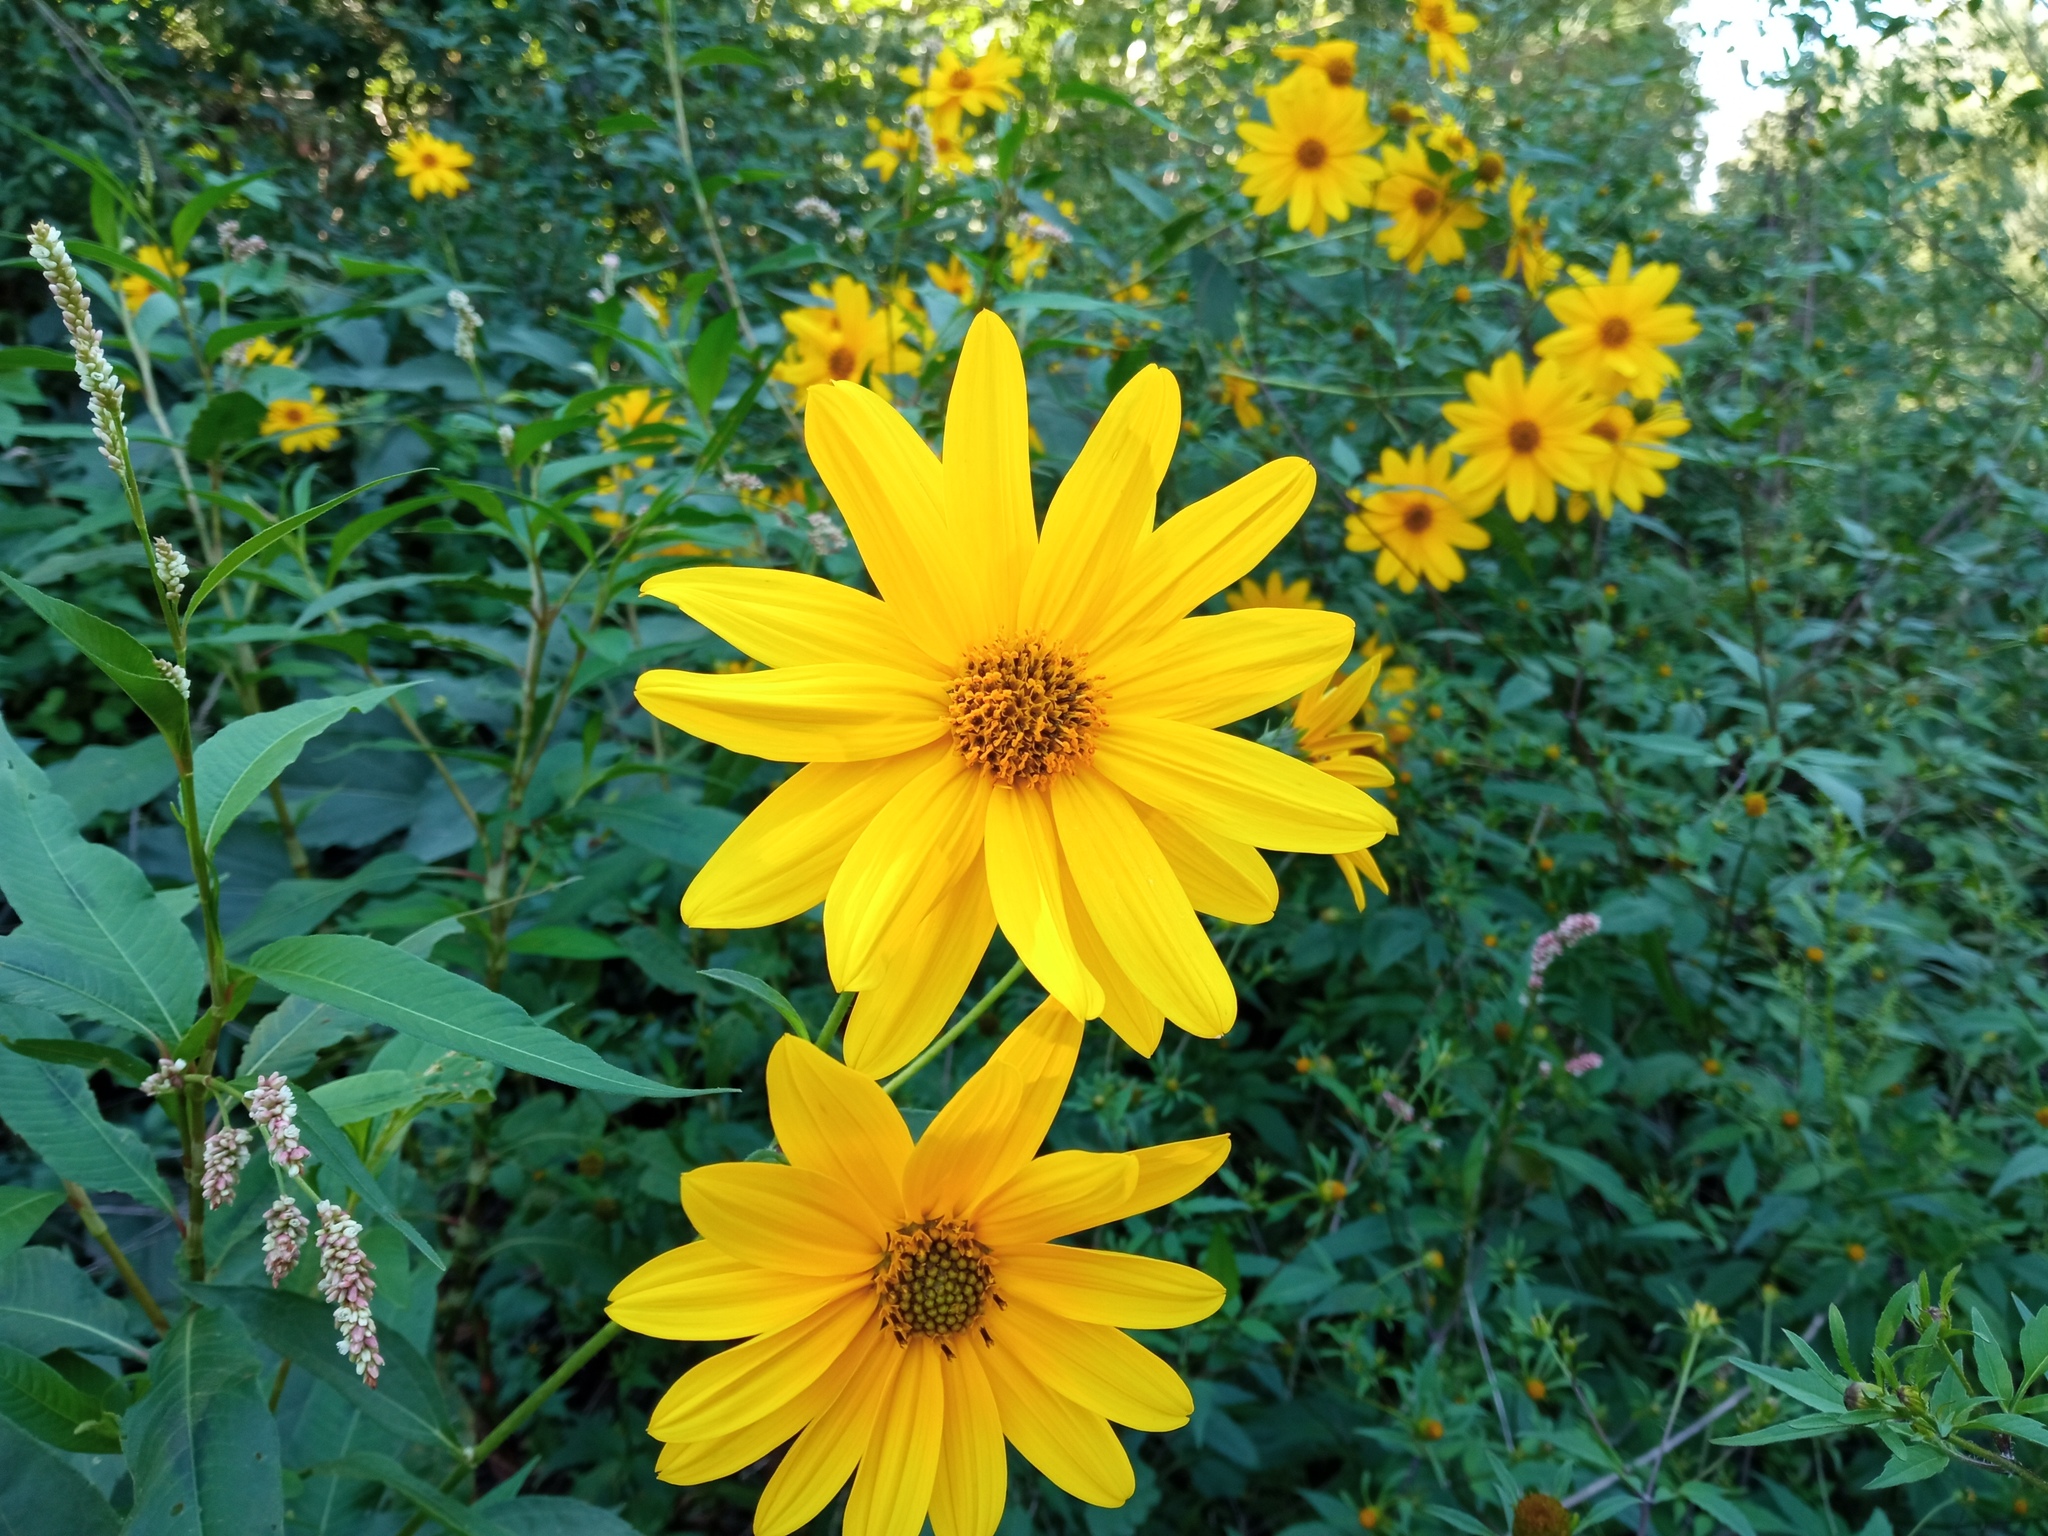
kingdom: Plantae
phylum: Tracheophyta
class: Magnoliopsida
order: Asterales
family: Asteraceae
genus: Helianthus
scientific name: Helianthus tuberosus
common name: Jerusalem artichoke
